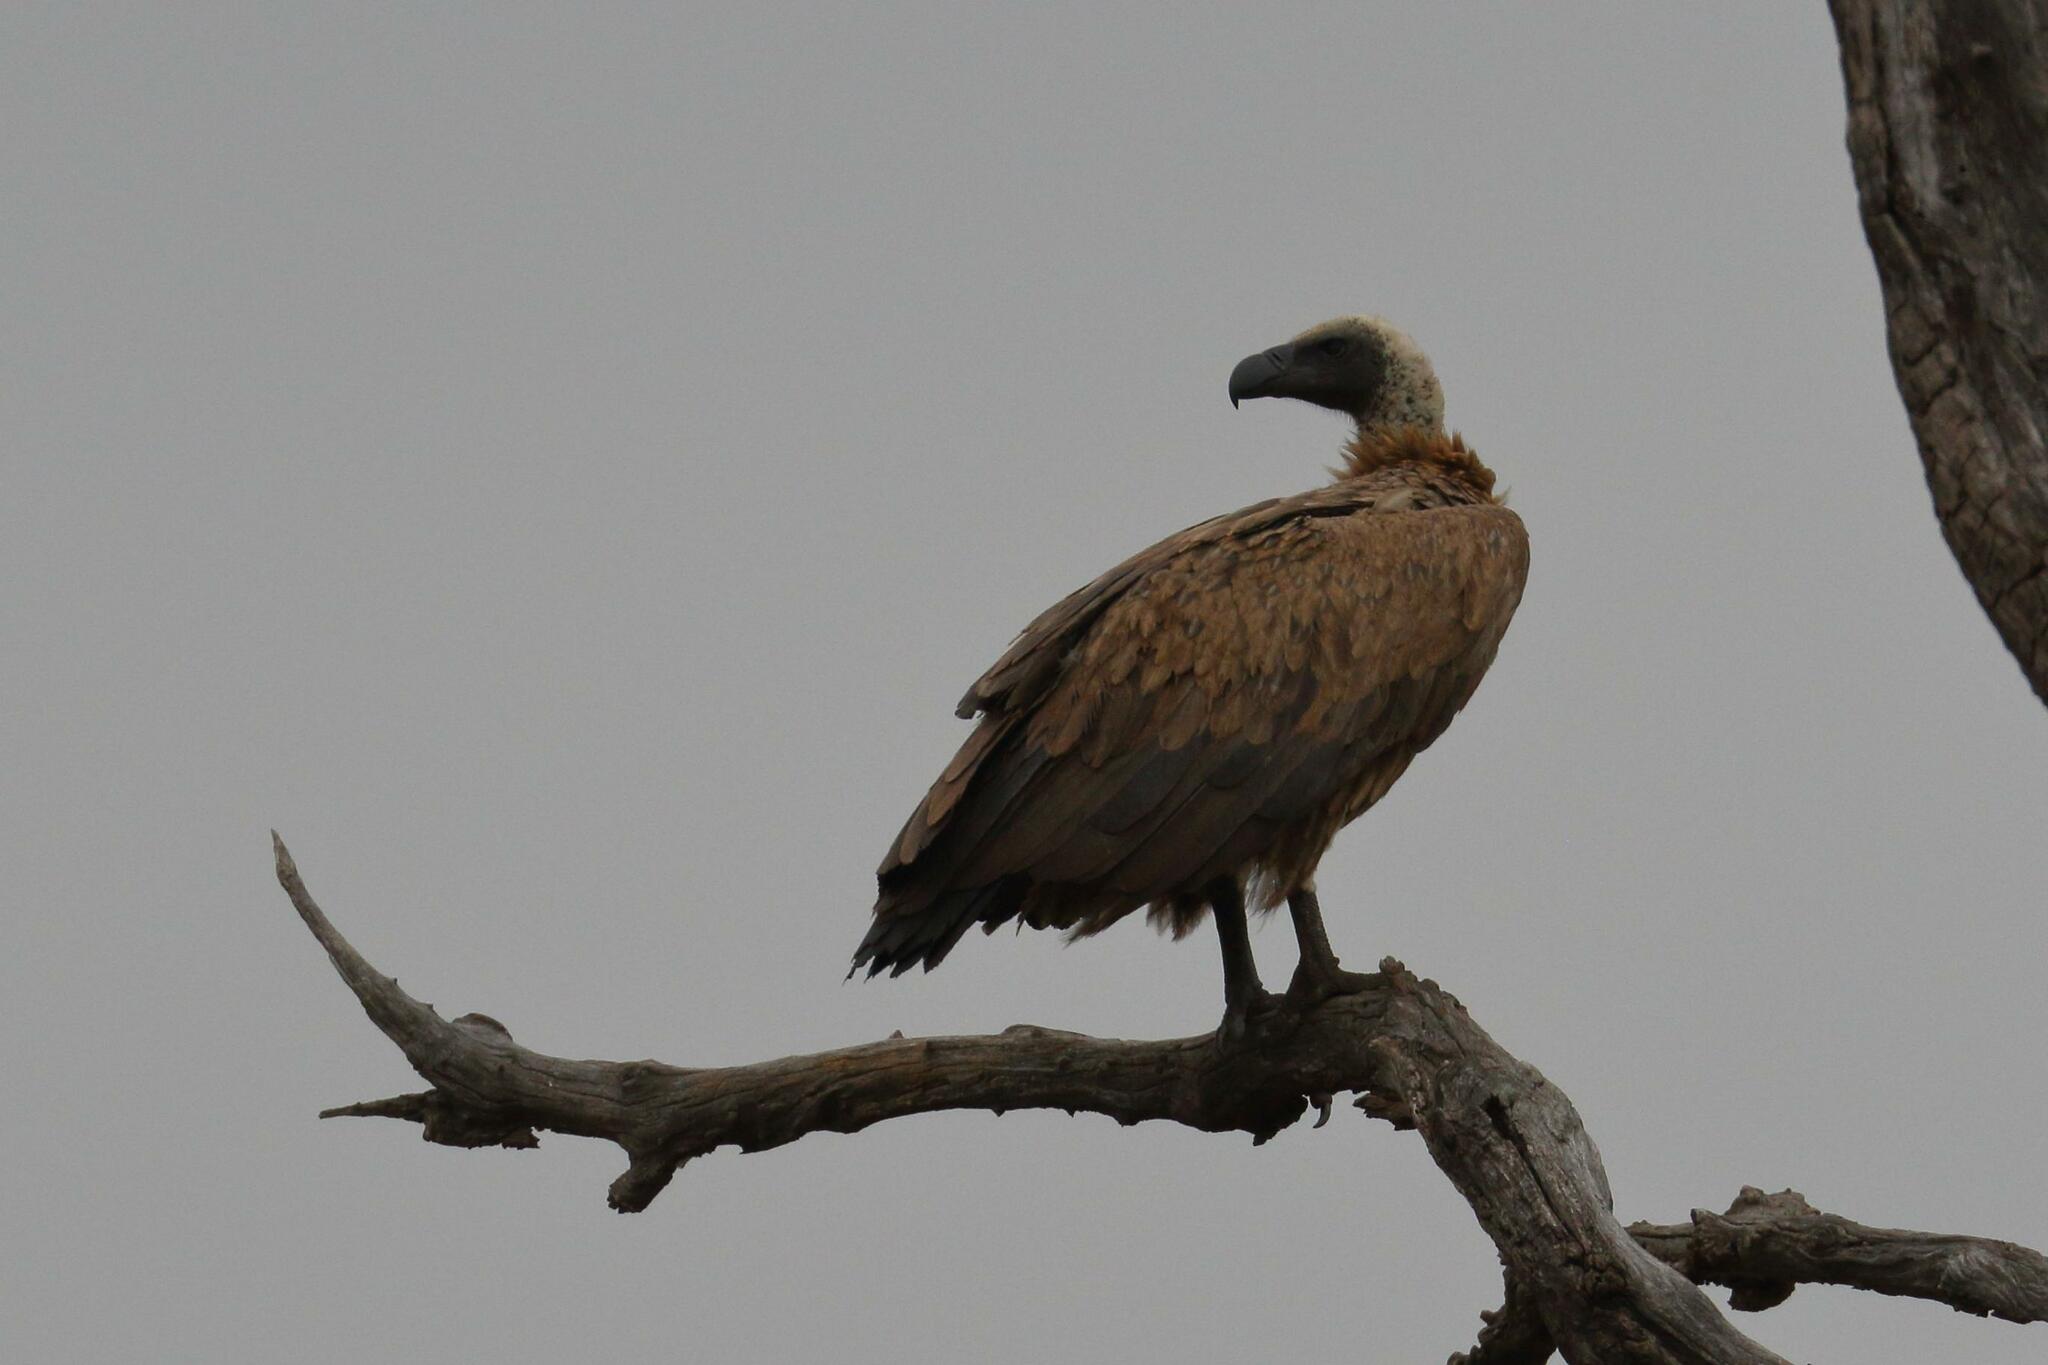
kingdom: Animalia
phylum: Chordata
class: Aves
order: Accipitriformes
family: Accipitridae
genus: Gyps
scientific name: Gyps africanus
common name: White-backed vulture
